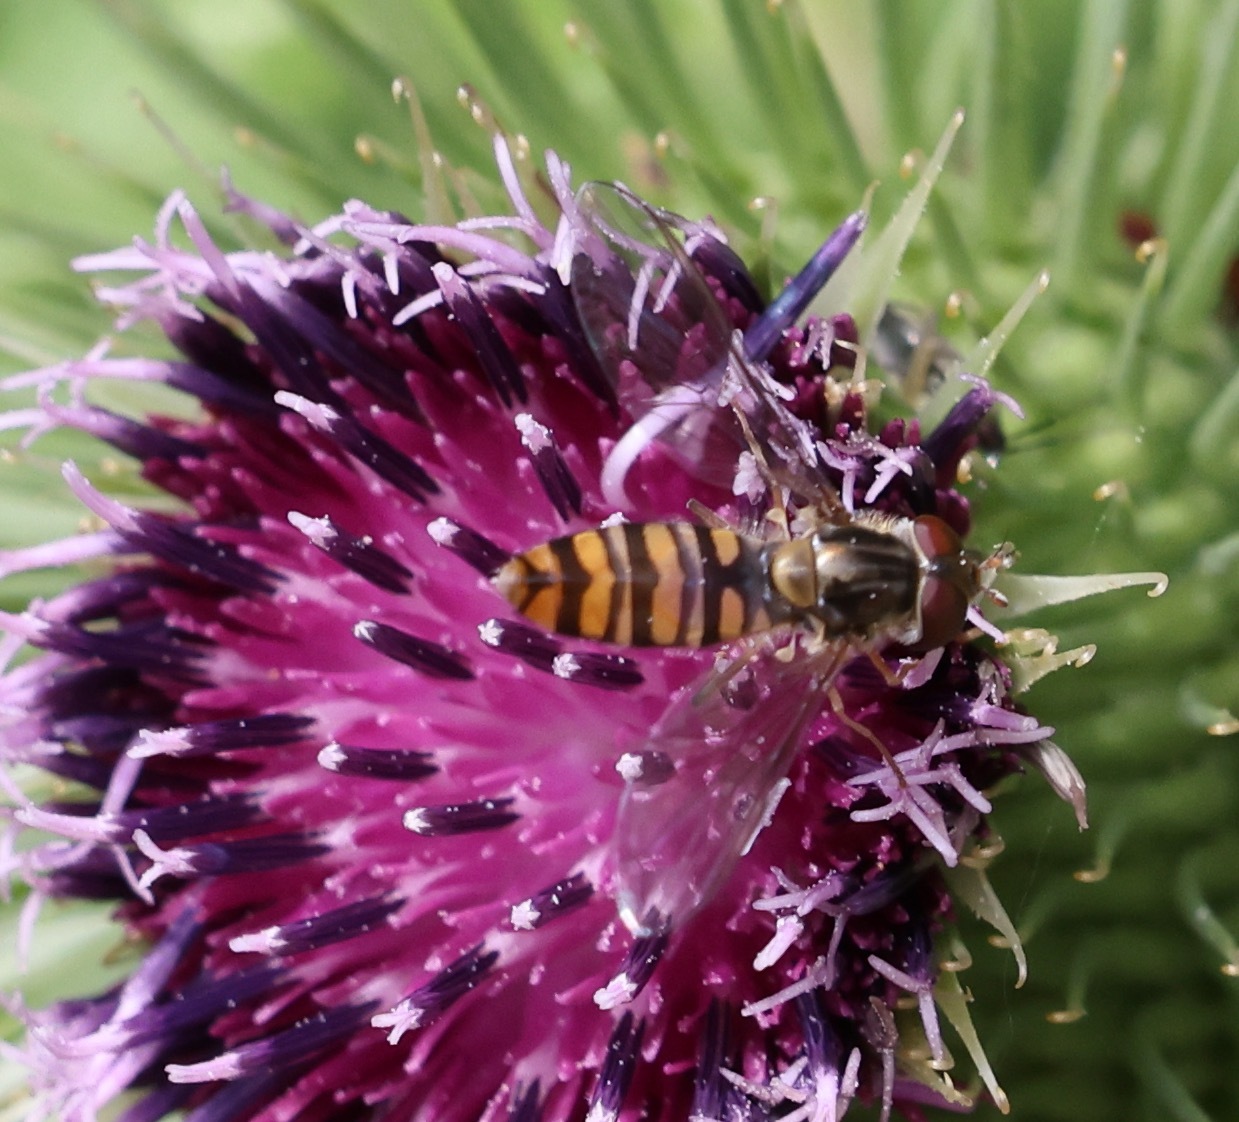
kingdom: Animalia
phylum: Arthropoda
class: Insecta
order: Diptera
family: Syrphidae
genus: Episyrphus
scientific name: Episyrphus balteatus
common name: Marmalade hoverfly
